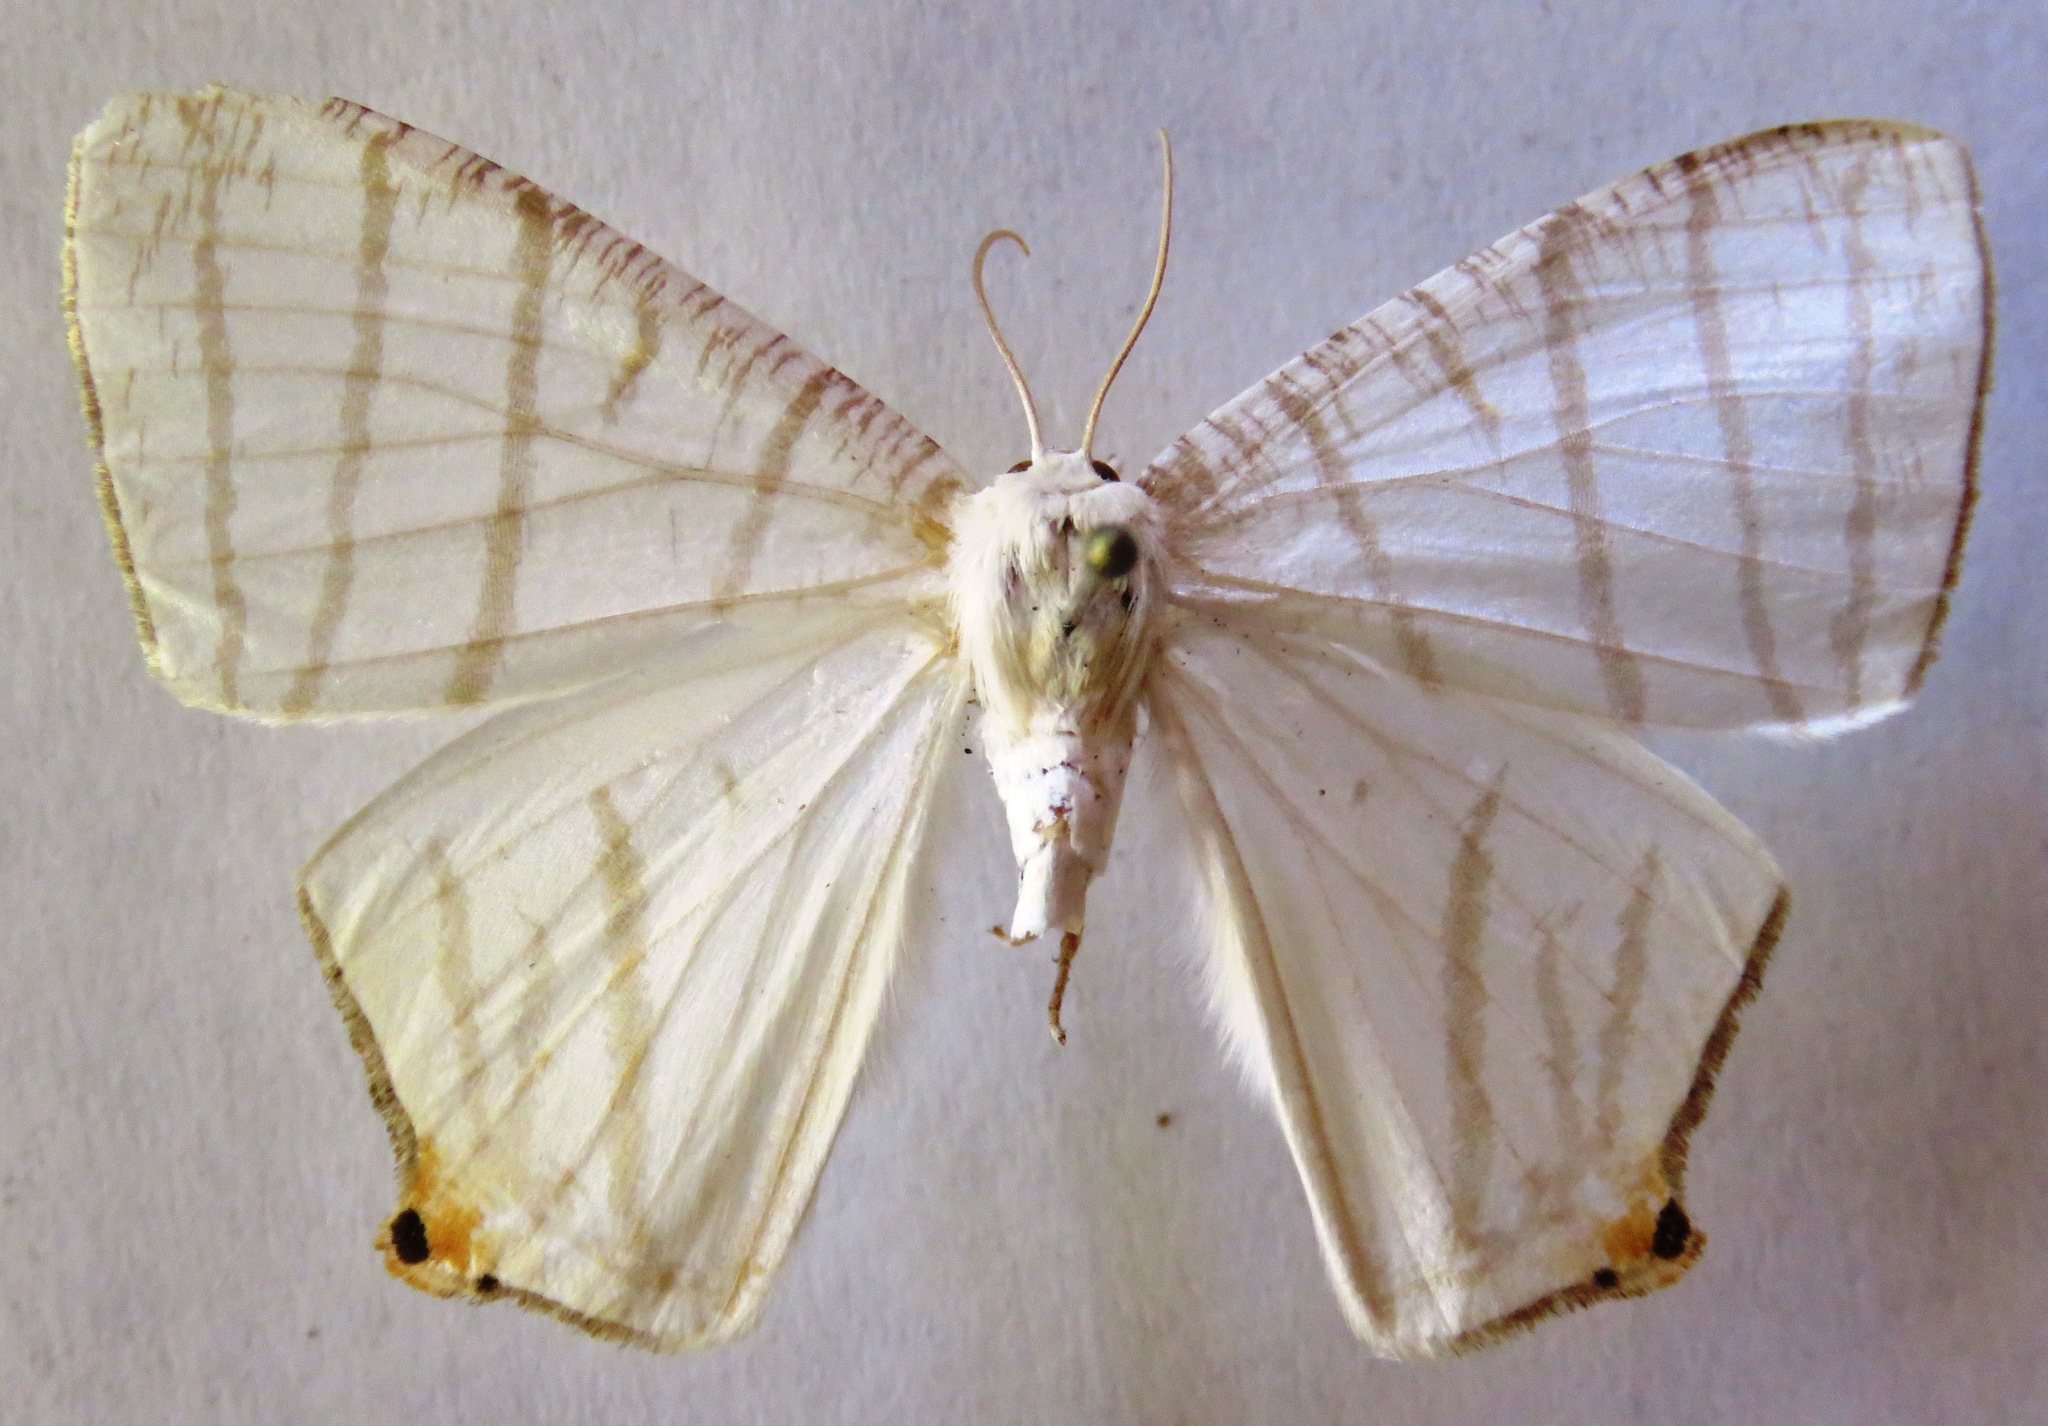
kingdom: Animalia
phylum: Arthropoda
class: Insecta
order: Lepidoptera
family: Geometridae
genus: Brachurapteryx
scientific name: Brachurapteryx tesserata
